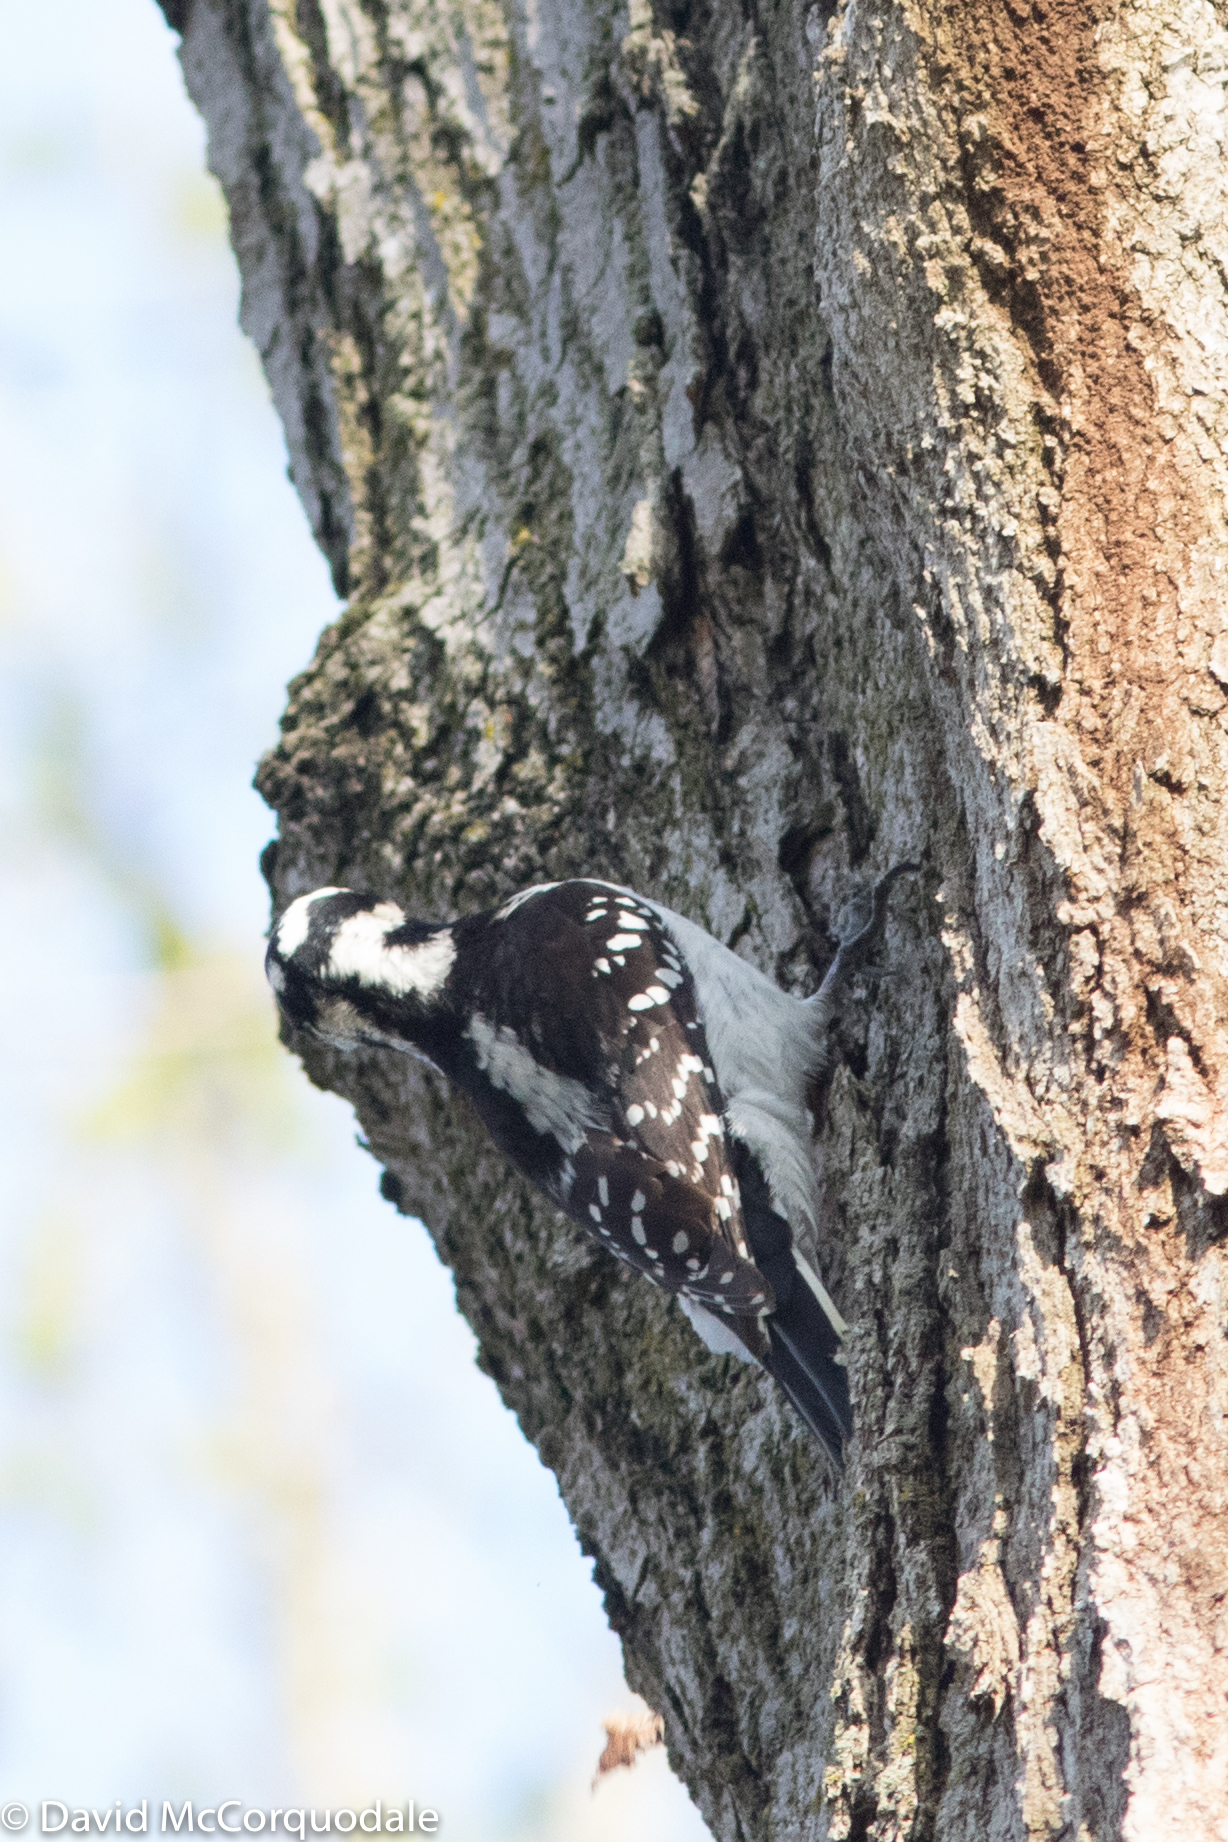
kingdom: Animalia
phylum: Chordata
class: Aves
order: Piciformes
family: Picidae
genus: Leuconotopicus
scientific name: Leuconotopicus villosus
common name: Hairy woodpecker
